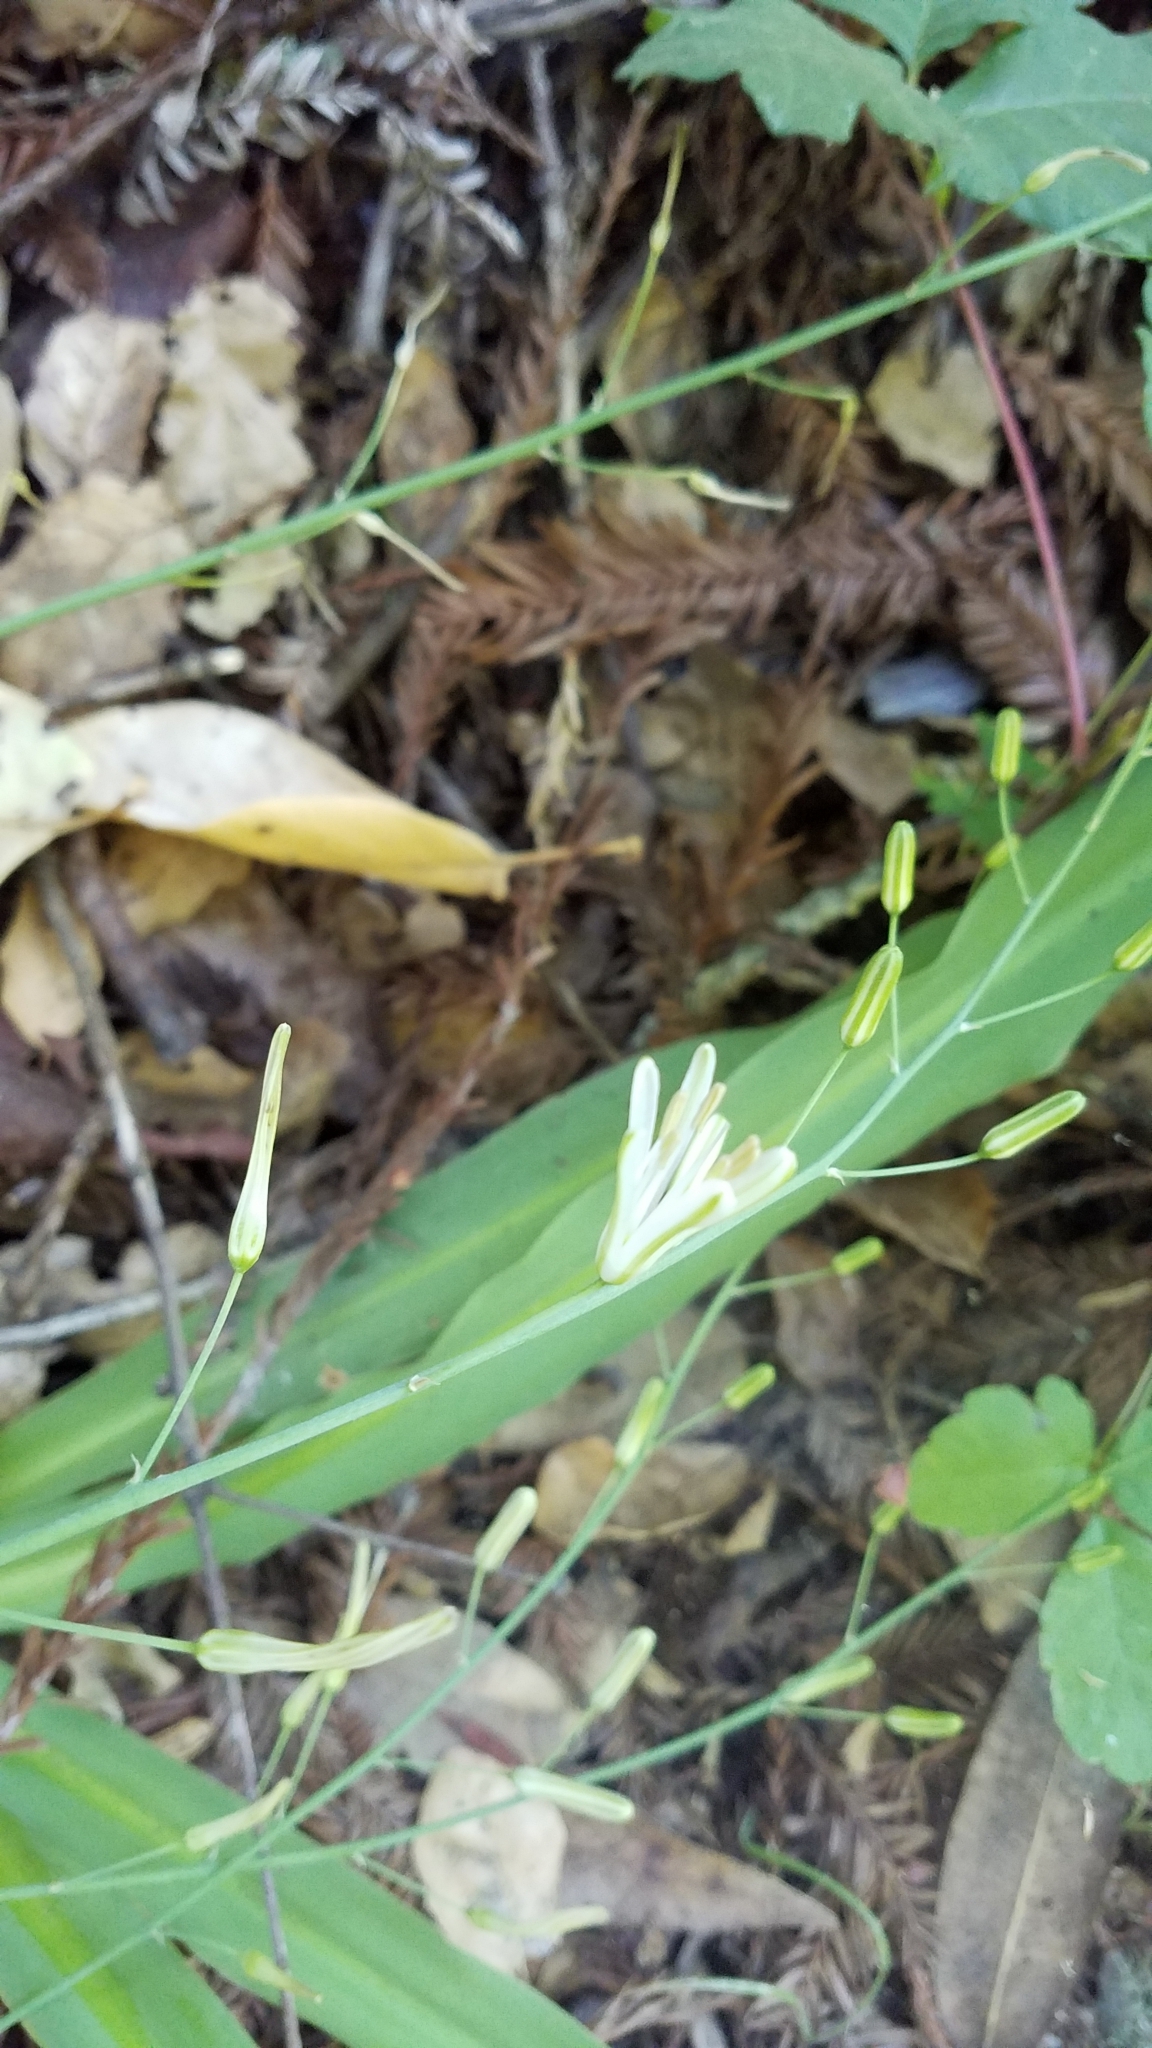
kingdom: Plantae
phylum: Tracheophyta
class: Liliopsida
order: Asparagales
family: Asparagaceae
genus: Chlorogalum
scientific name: Chlorogalum pomeridianum
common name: Amole
